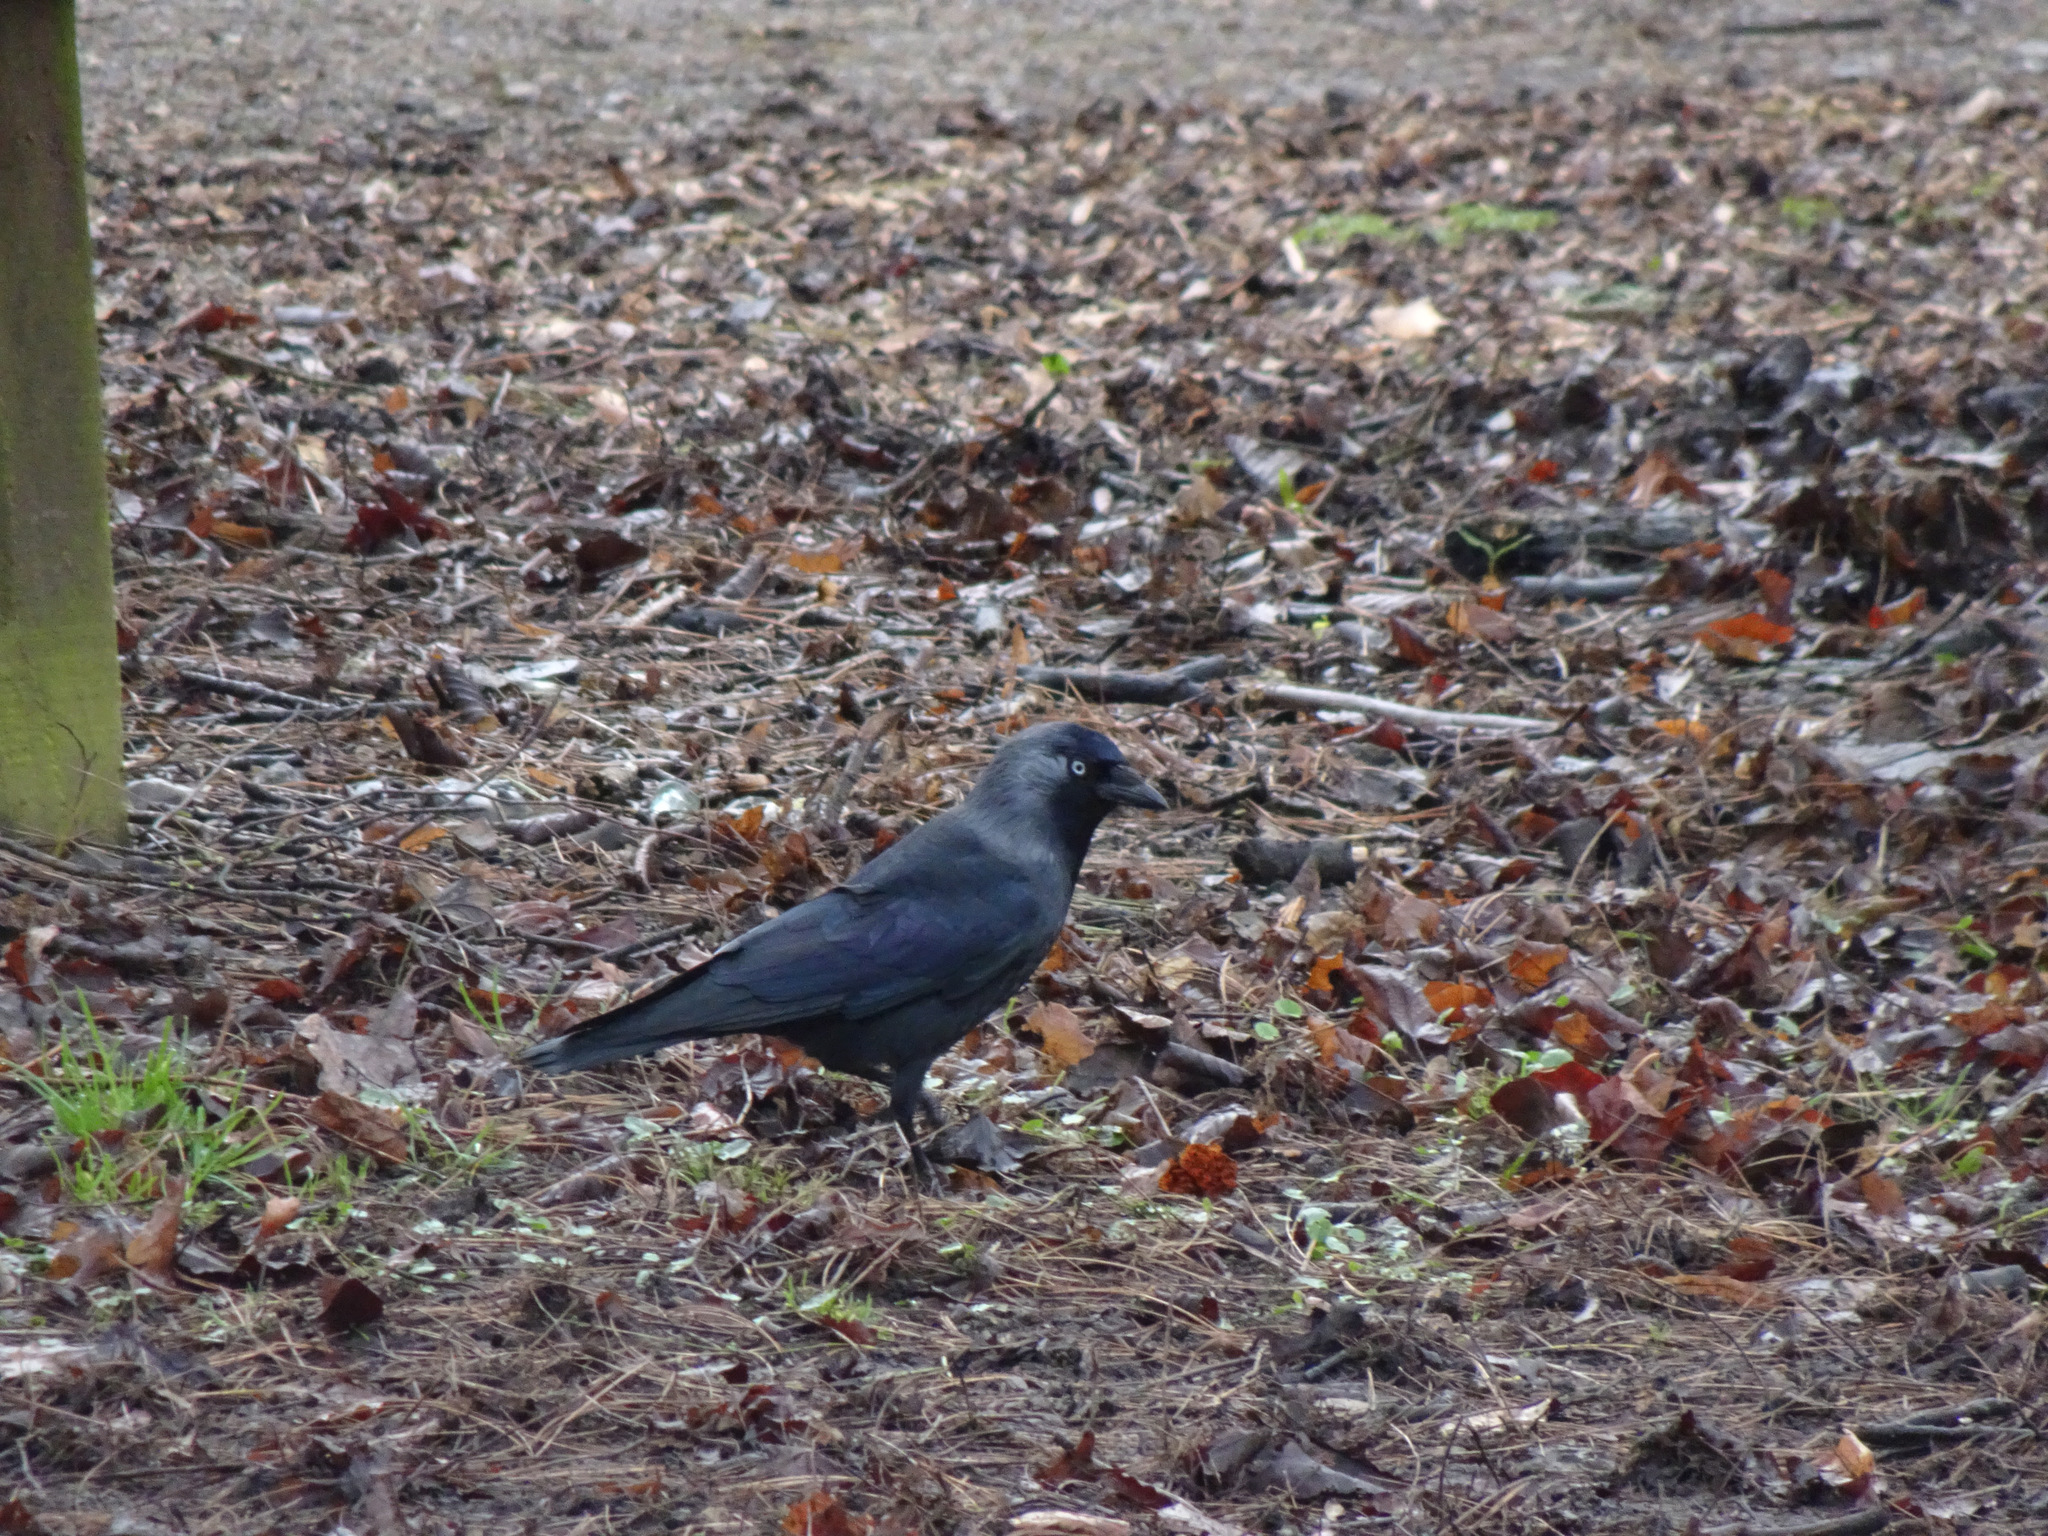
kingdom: Animalia
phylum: Chordata
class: Aves
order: Passeriformes
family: Corvidae
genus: Coloeus
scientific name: Coloeus monedula
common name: Western jackdaw
